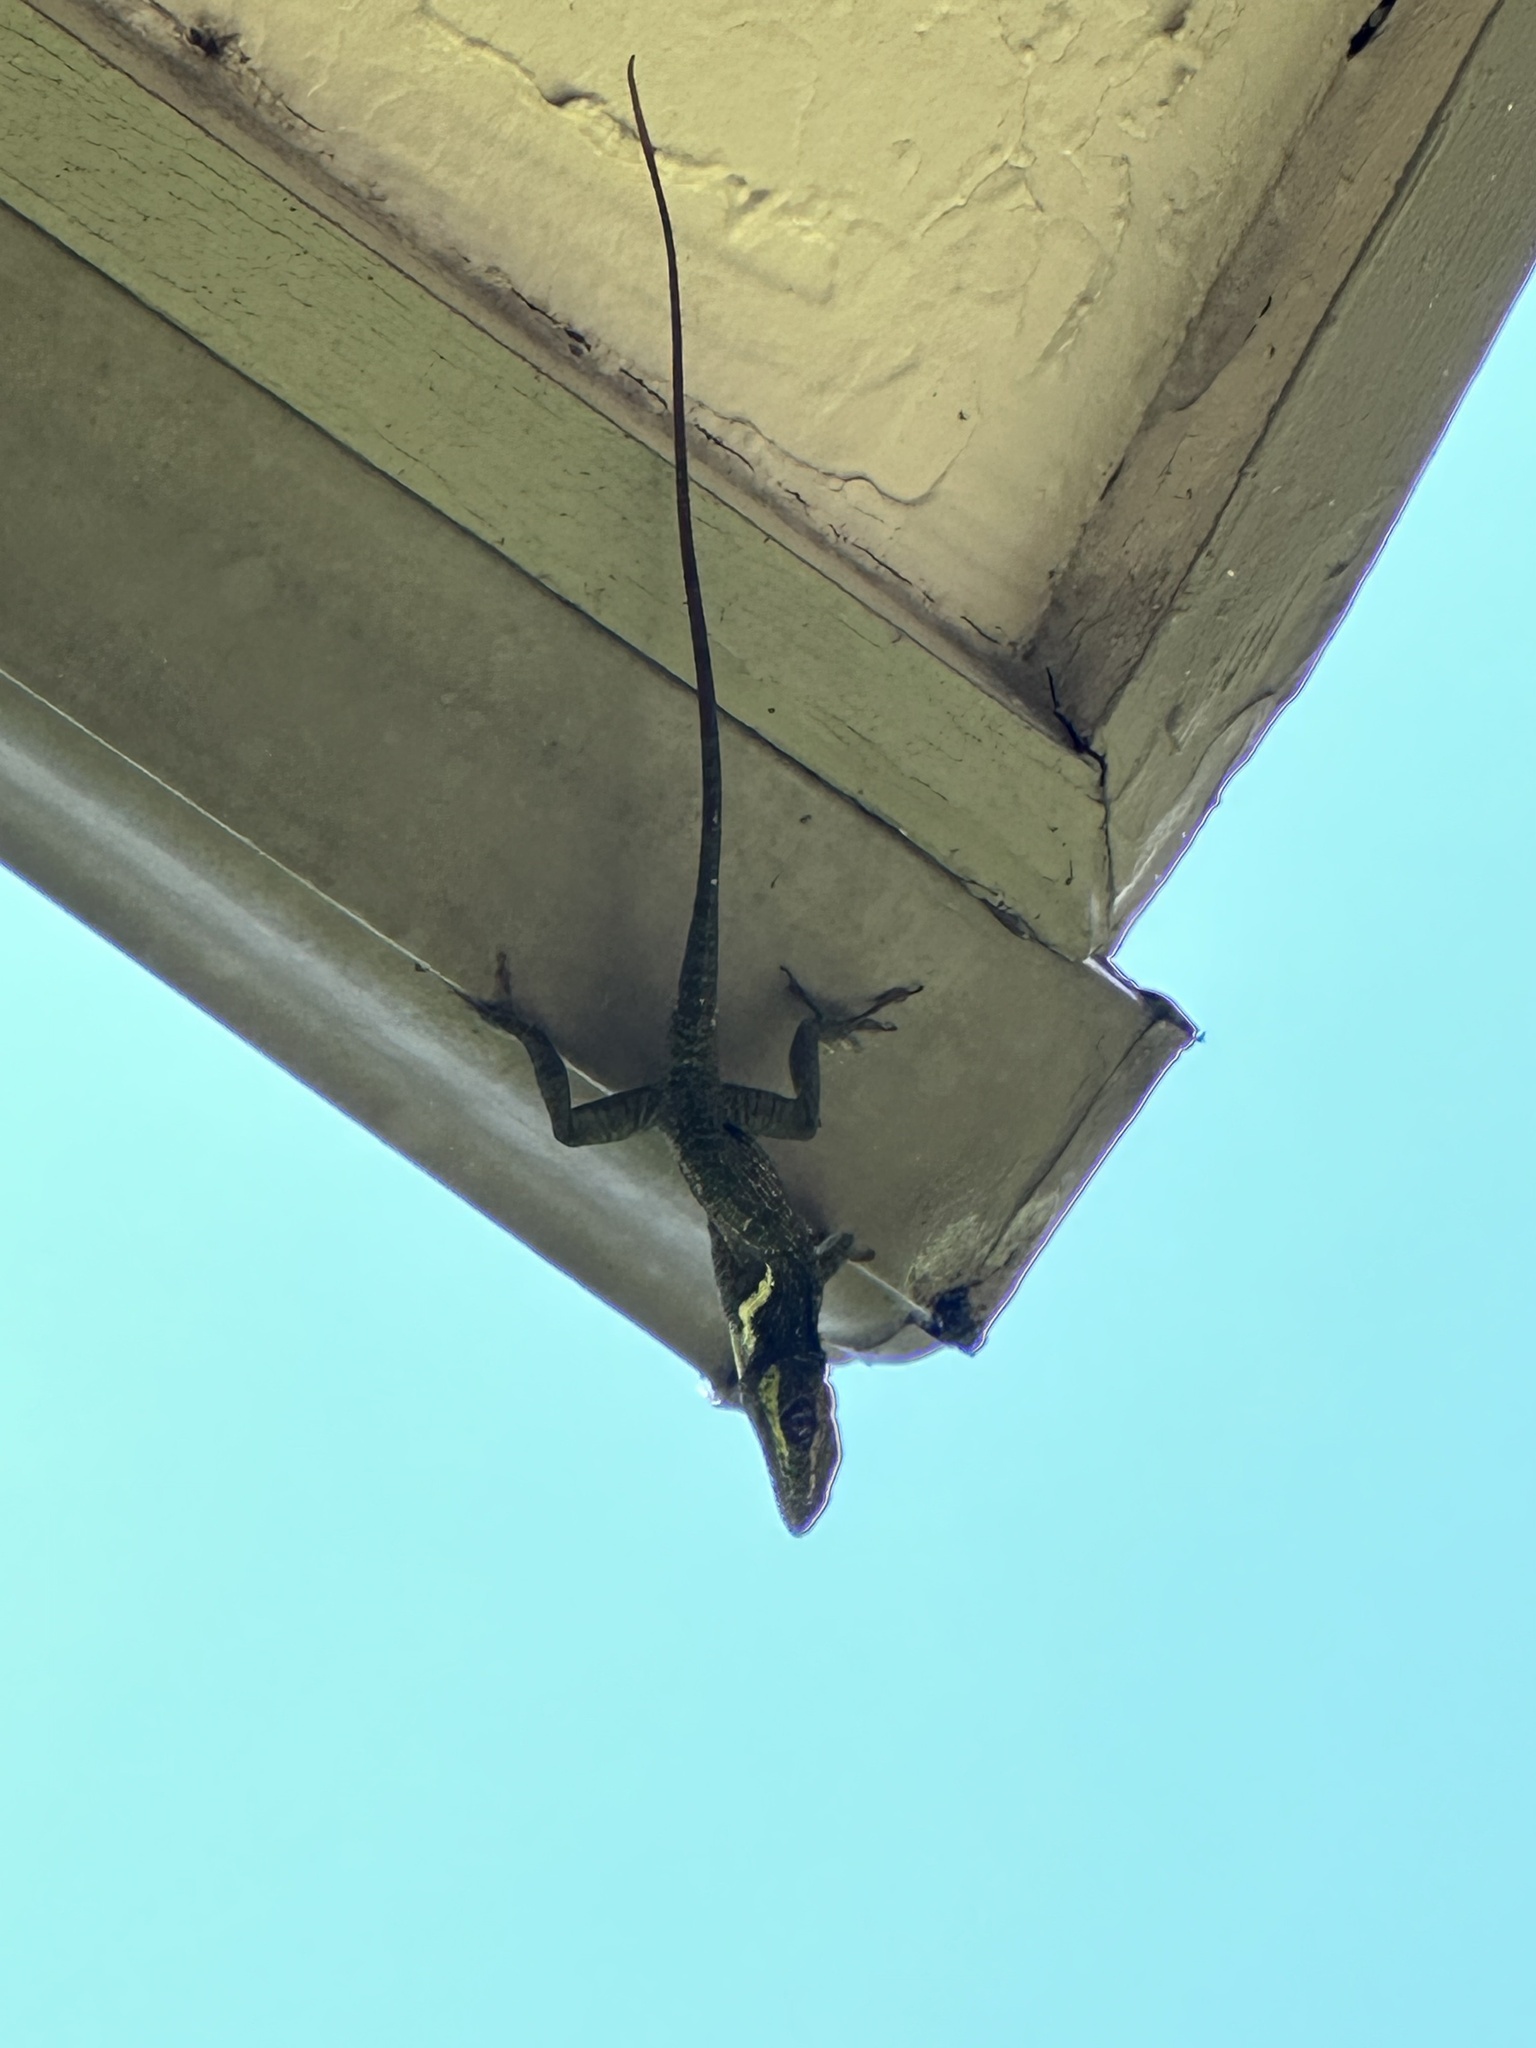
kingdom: Animalia
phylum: Chordata
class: Squamata
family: Dactyloidae
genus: Anolis
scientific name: Anolis equestris
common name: Knight anole
